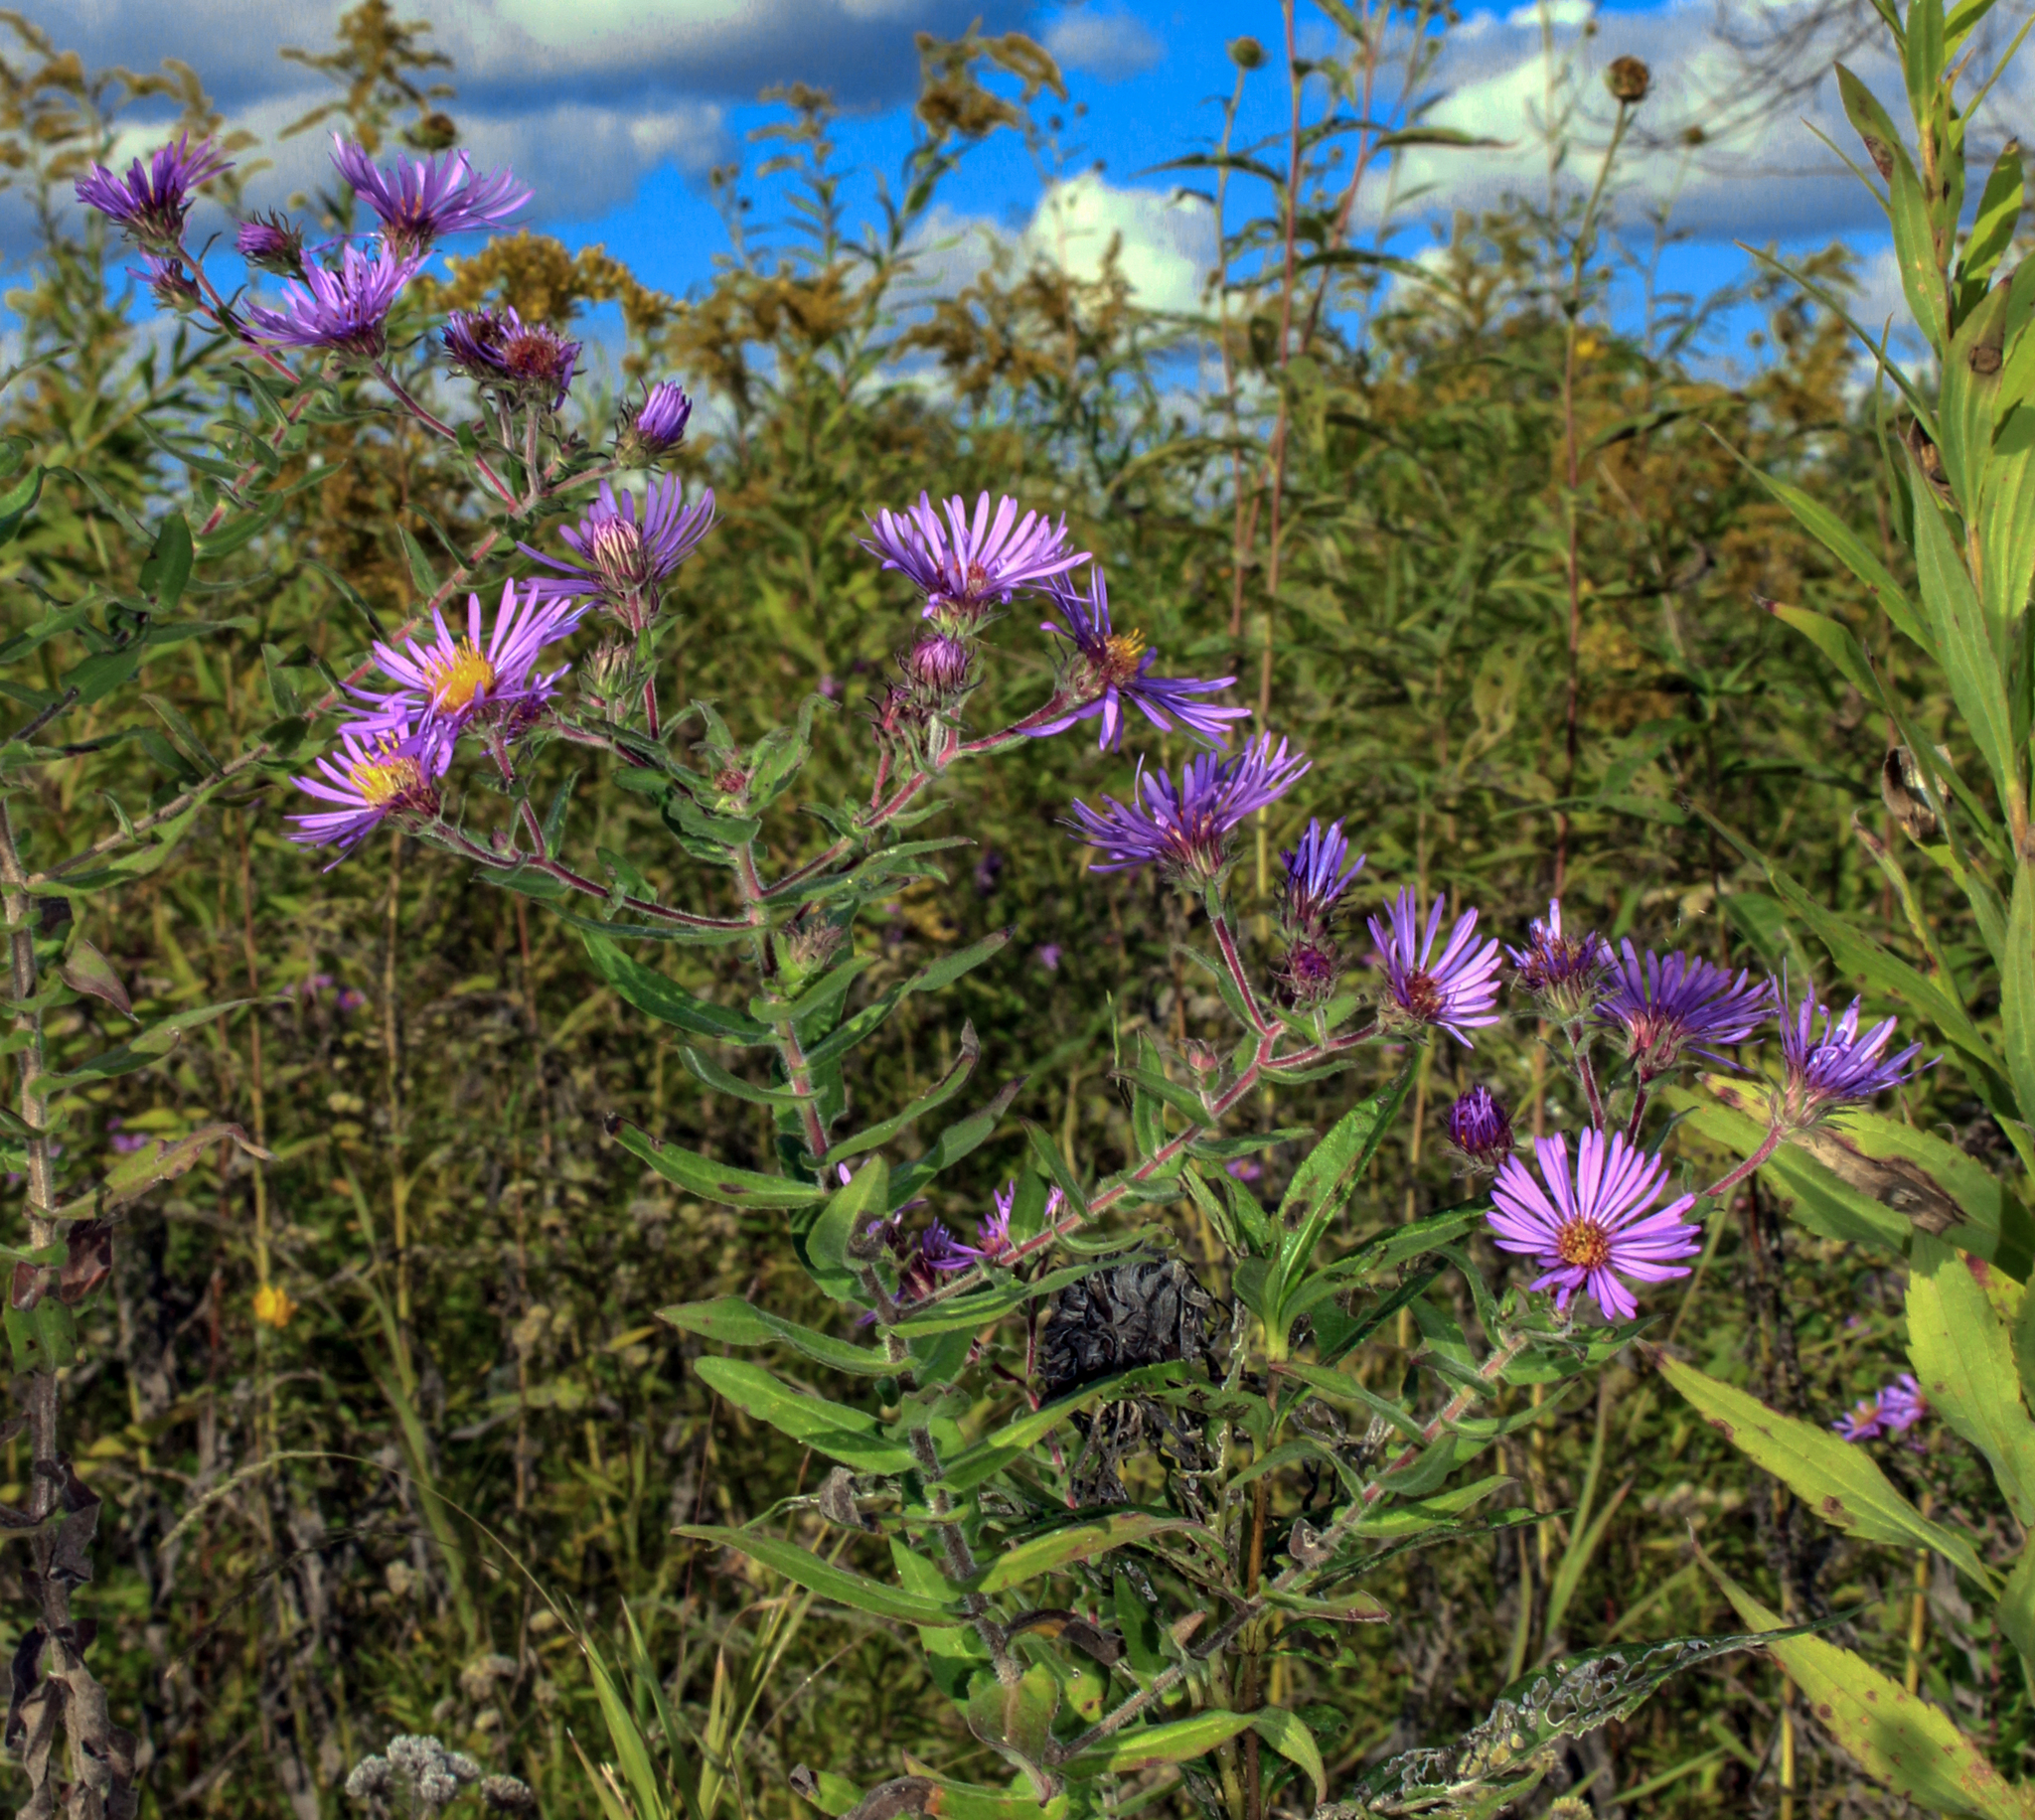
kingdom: Plantae
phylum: Tracheophyta
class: Magnoliopsida
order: Asterales
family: Asteraceae
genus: Symphyotrichum
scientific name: Symphyotrichum novae-angliae
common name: Michaelmas daisy
